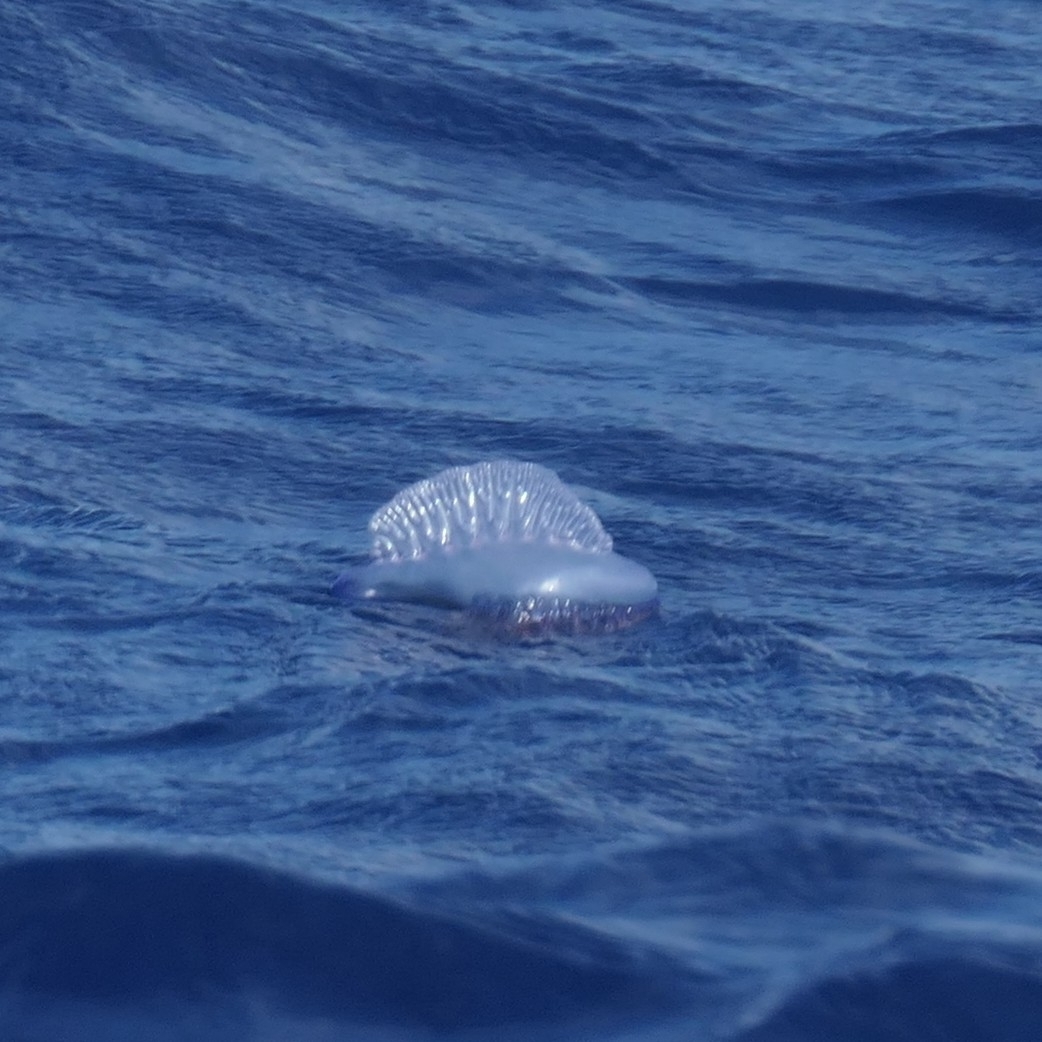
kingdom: Animalia
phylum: Cnidaria
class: Hydrozoa
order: Siphonophorae
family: Physaliidae
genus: Physalia
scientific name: Physalia physalis
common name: Portuguese man-of-war
